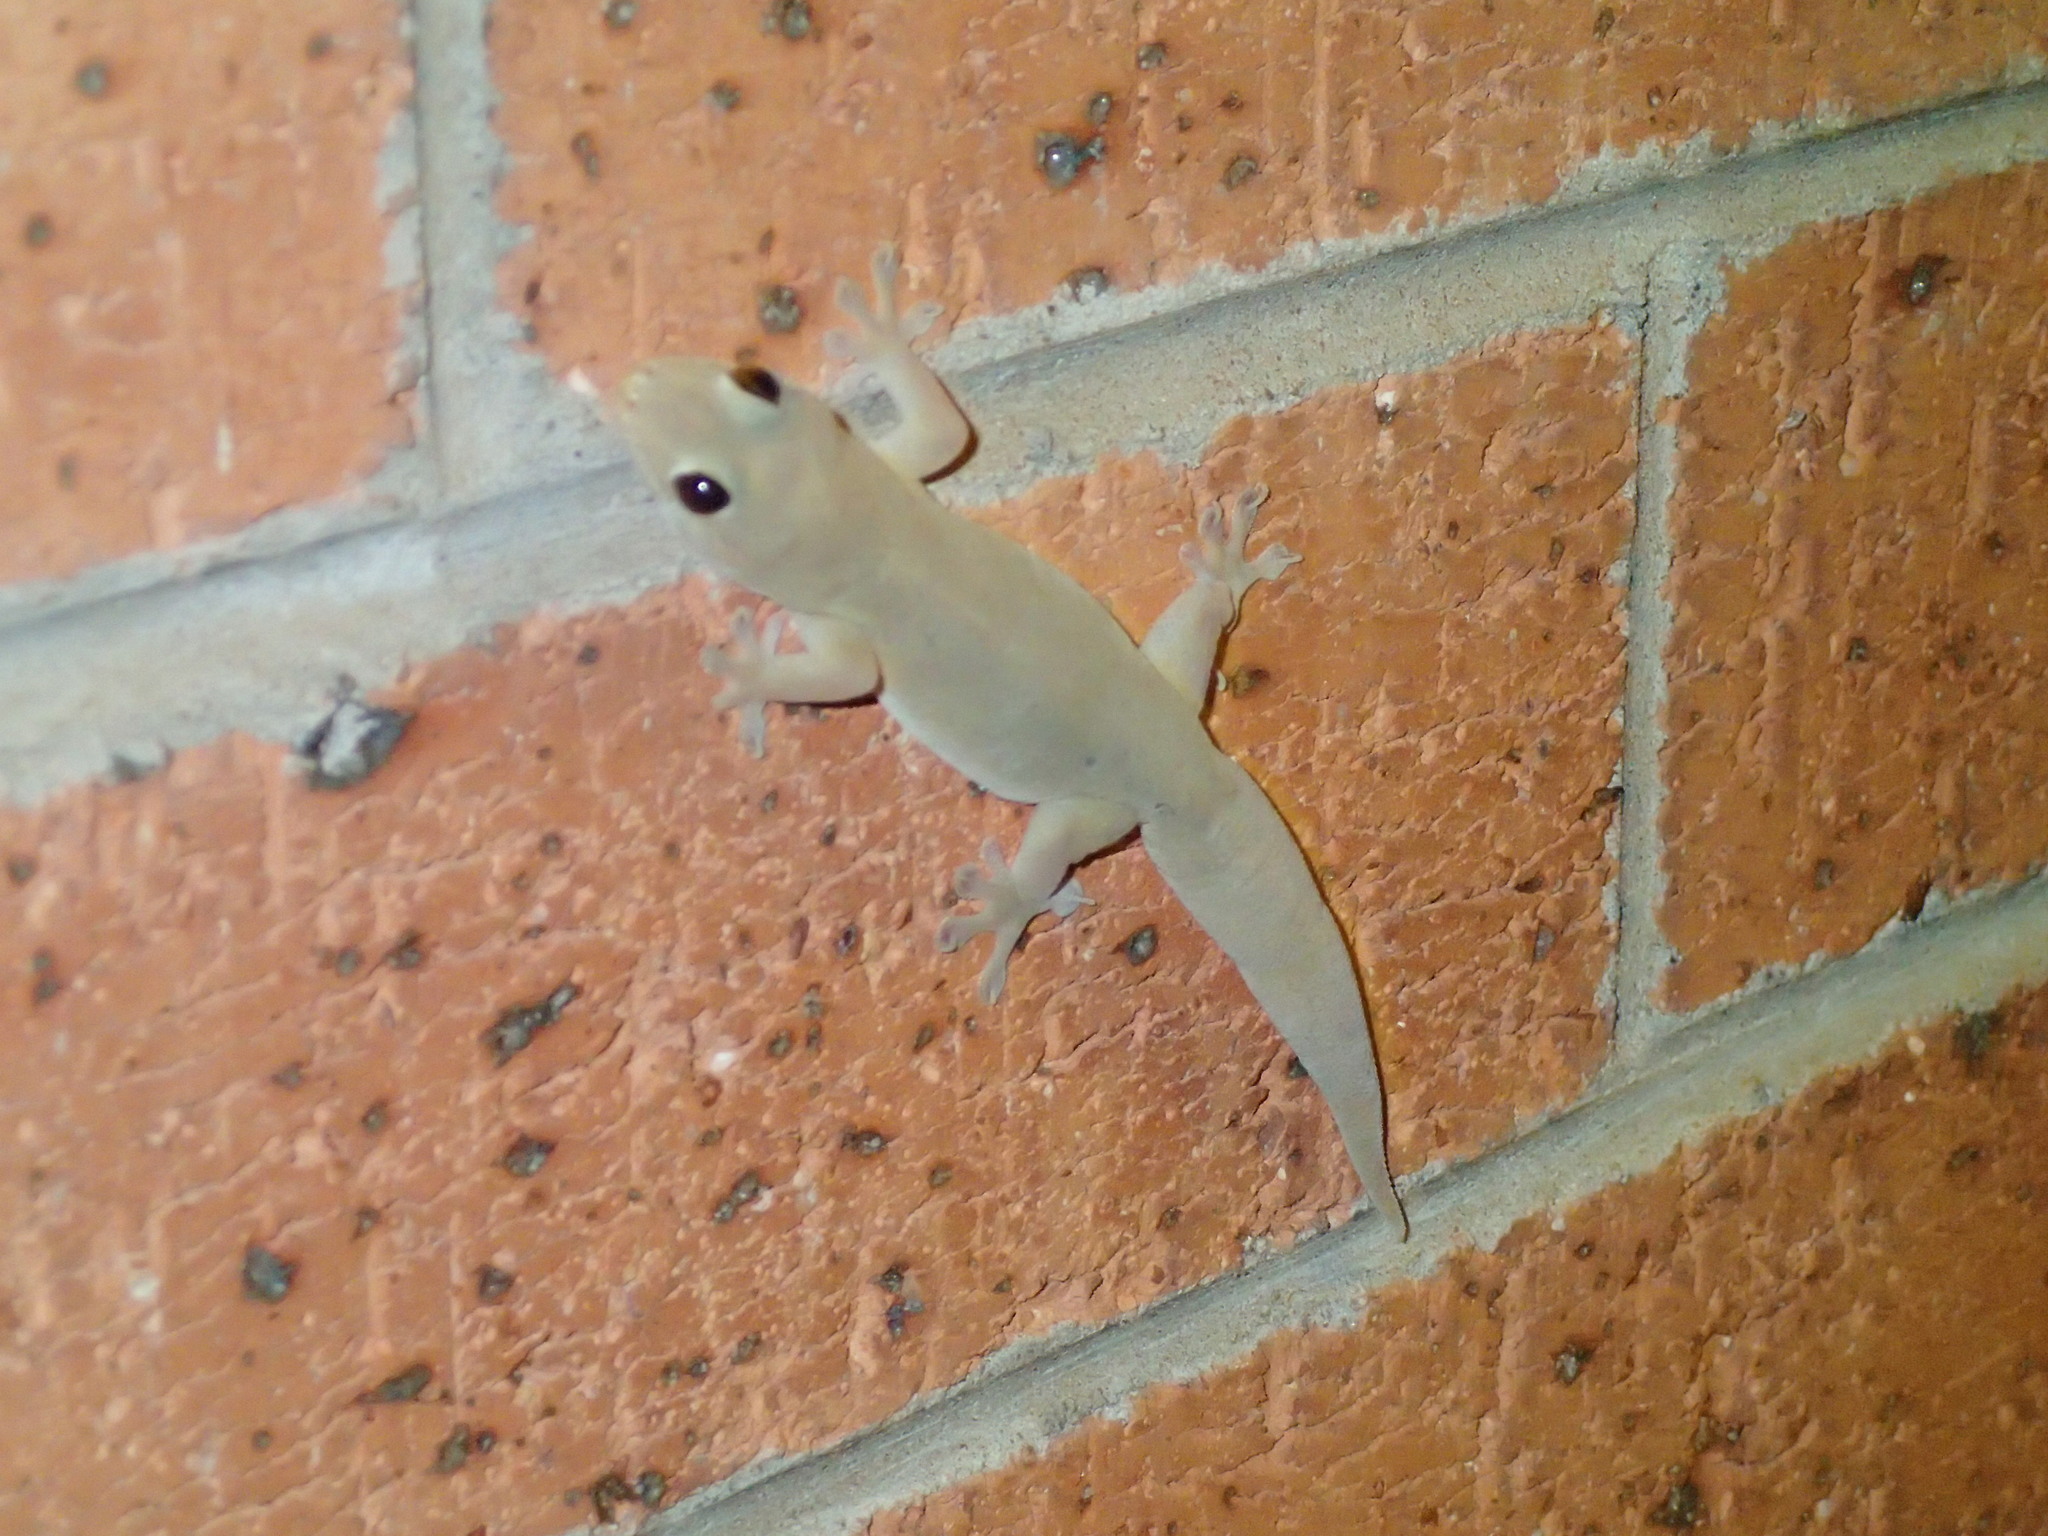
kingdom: Animalia
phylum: Chordata
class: Squamata
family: Gekkonidae
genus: Gehyra
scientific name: Gehyra australis
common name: House gecko
